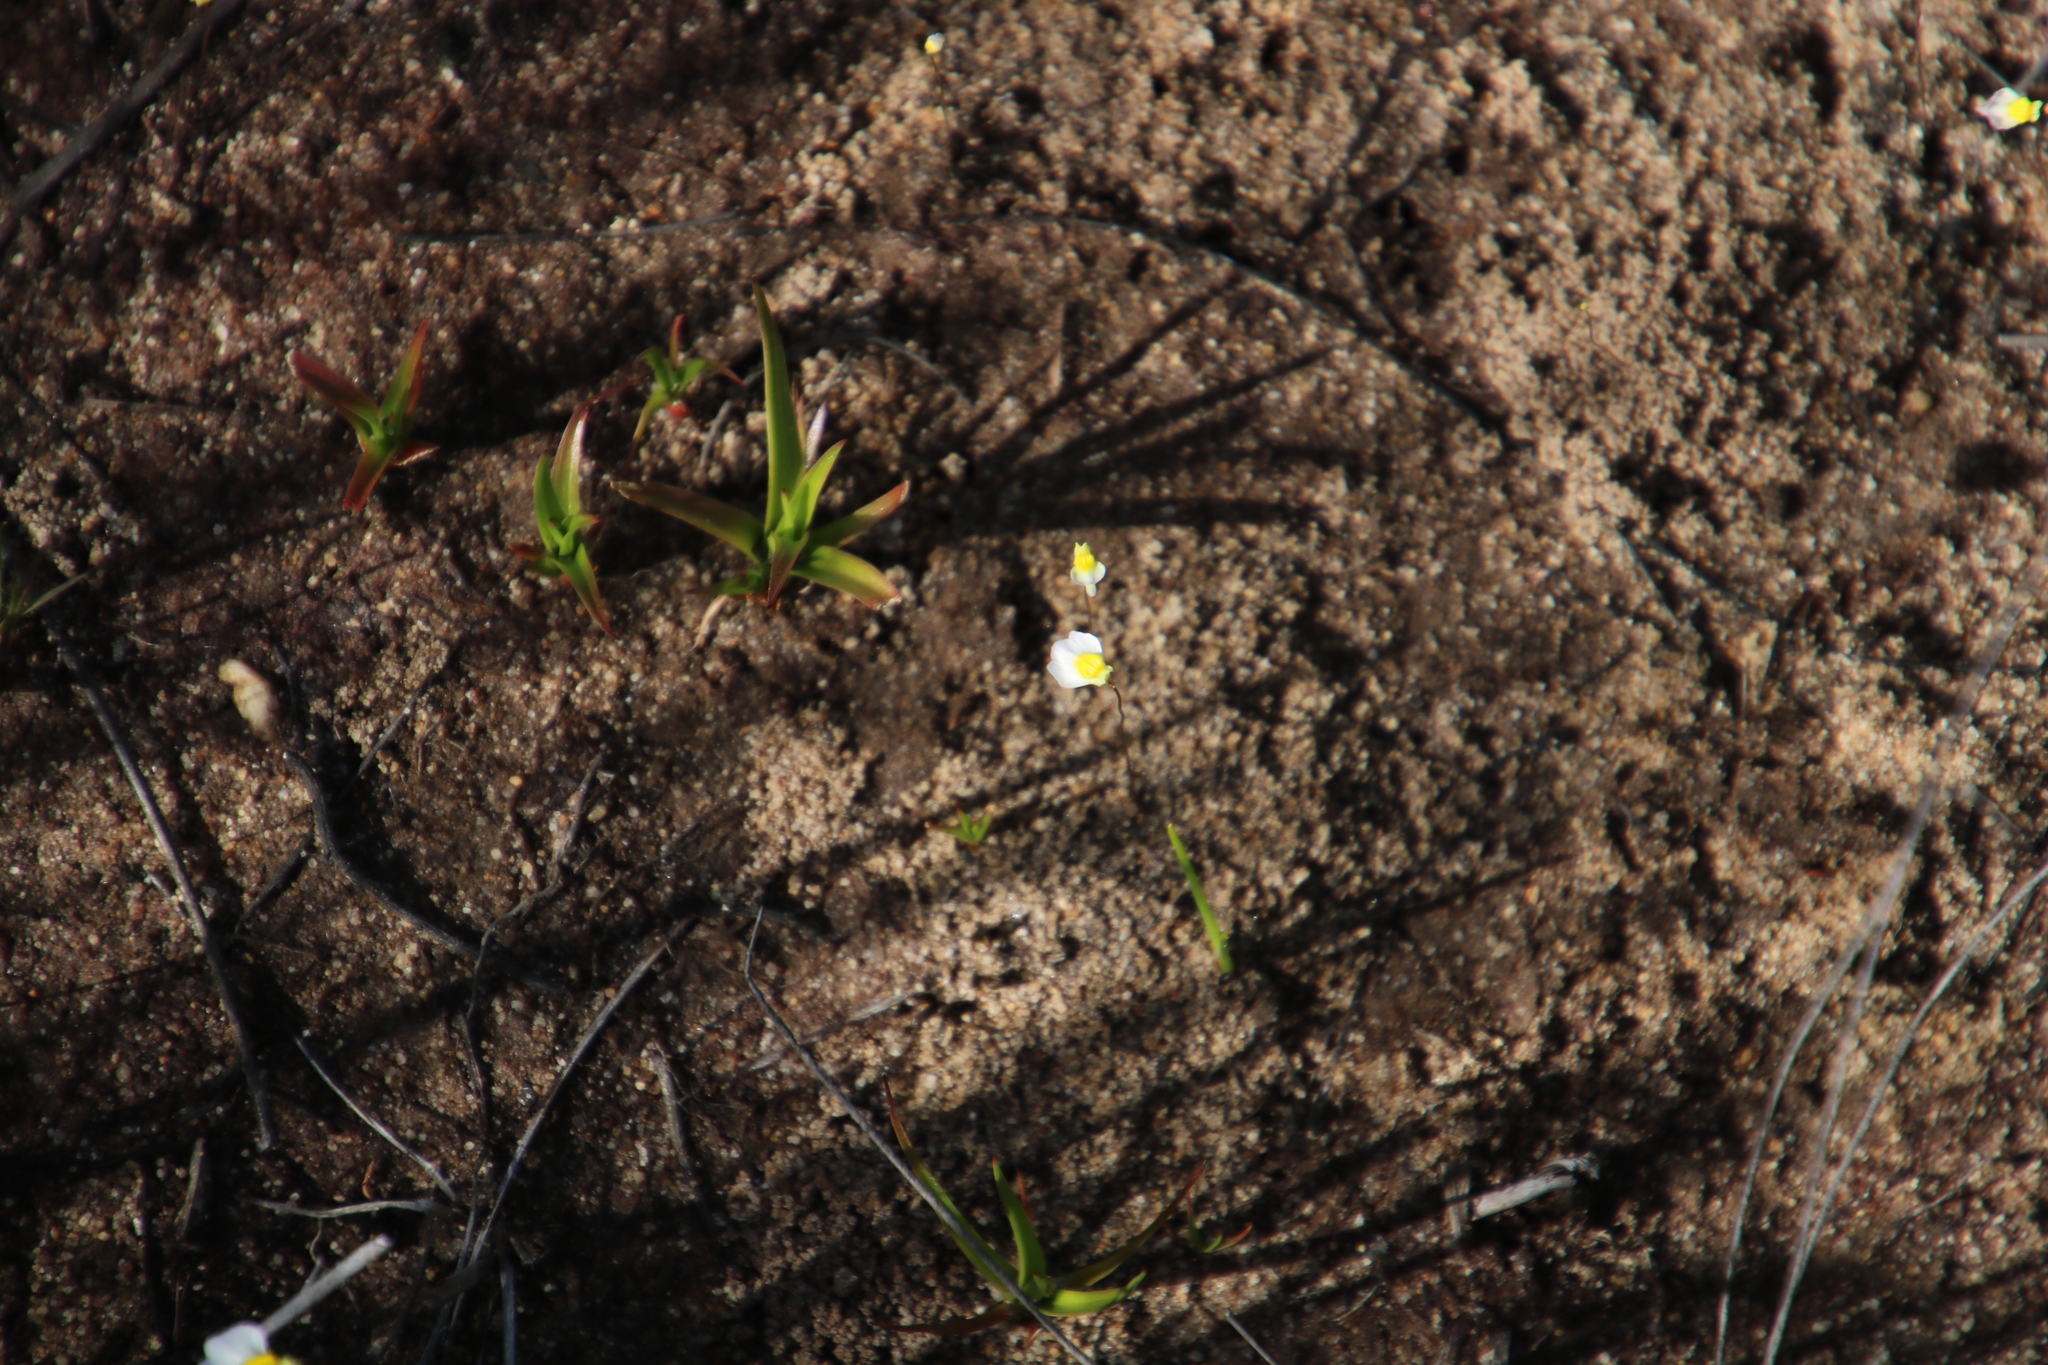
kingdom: Plantae
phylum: Tracheophyta
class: Magnoliopsida
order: Lamiales
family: Lentibulariaceae
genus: Utricularia
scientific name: Utricularia bisquamata
